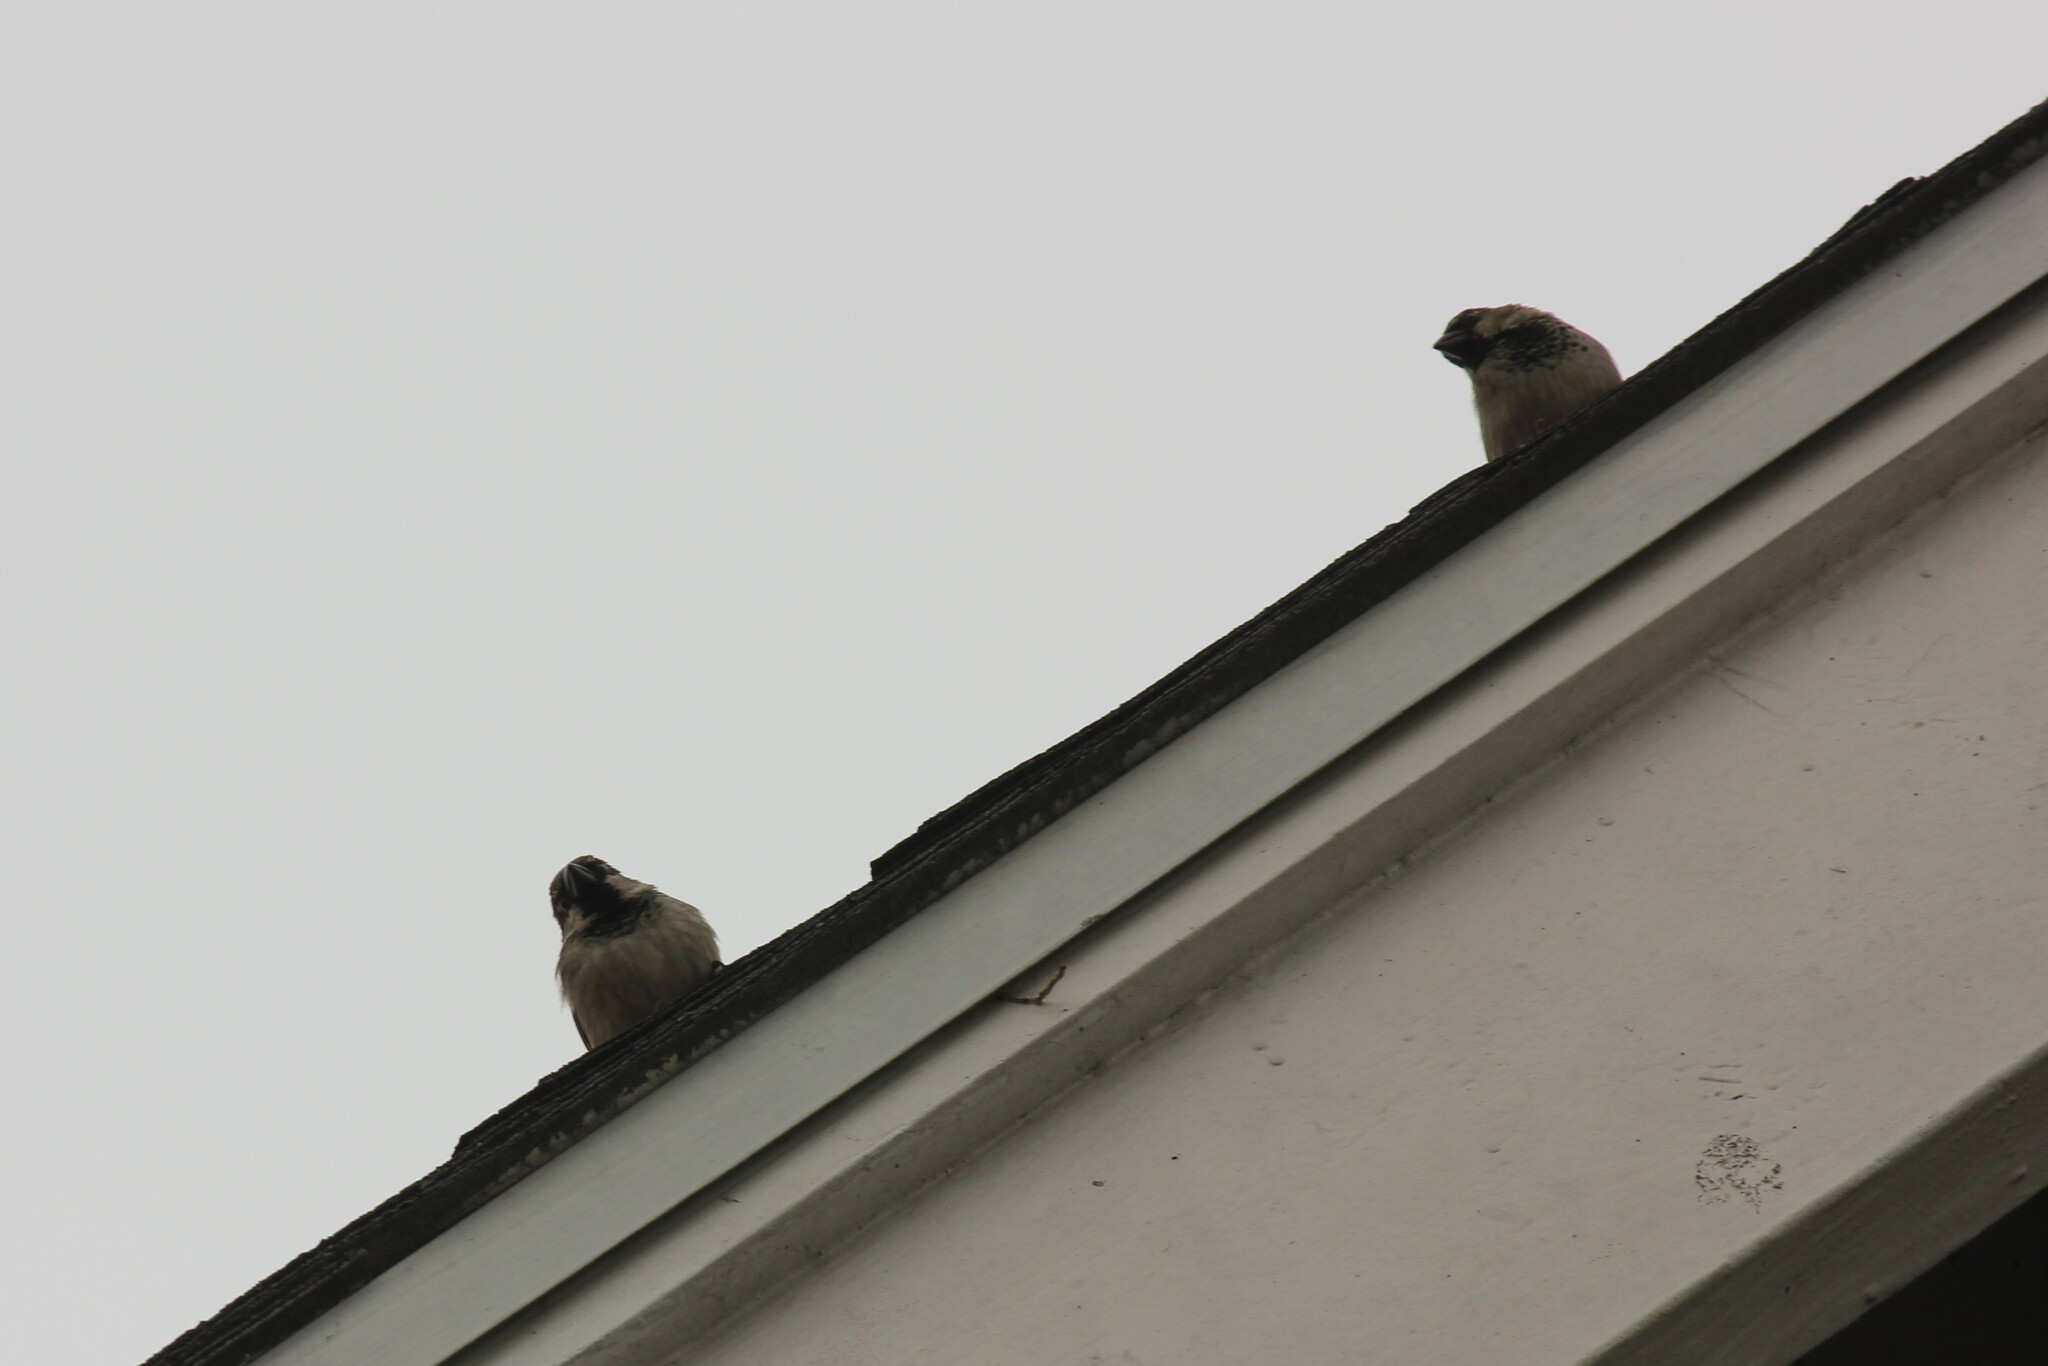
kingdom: Animalia
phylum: Chordata
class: Aves
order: Passeriformes
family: Passeridae
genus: Passer
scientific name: Passer domesticus
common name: House sparrow
